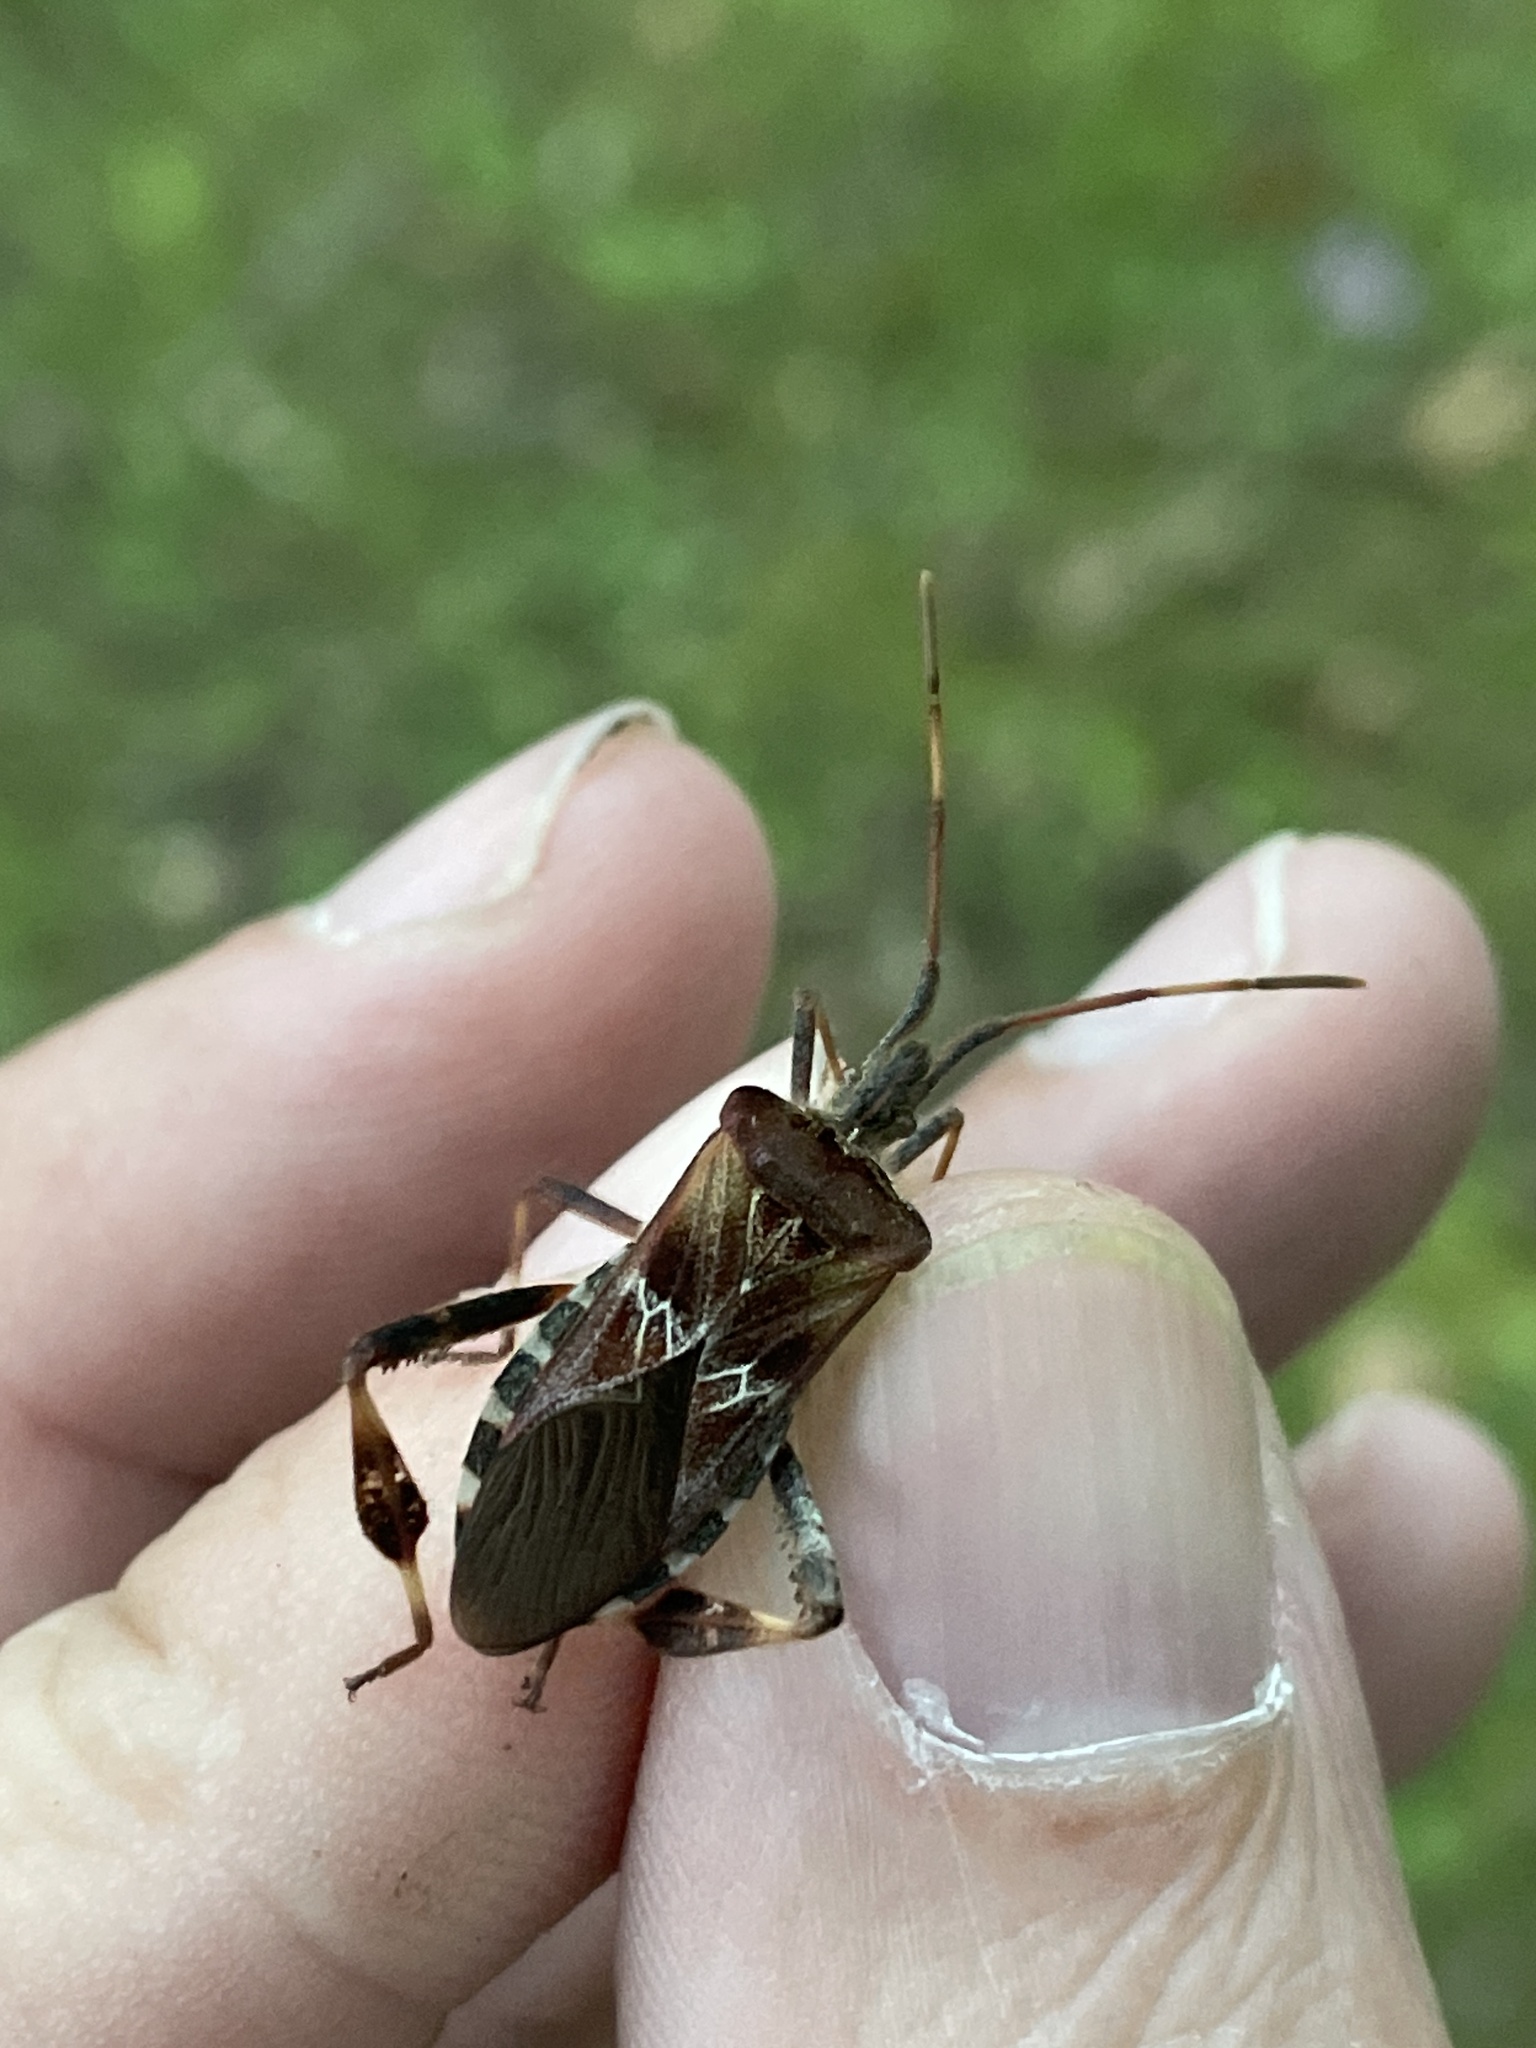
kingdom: Animalia
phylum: Arthropoda
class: Insecta
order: Hemiptera
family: Coreidae
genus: Leptoglossus
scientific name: Leptoglossus occidentalis
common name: Western conifer-seed bug
